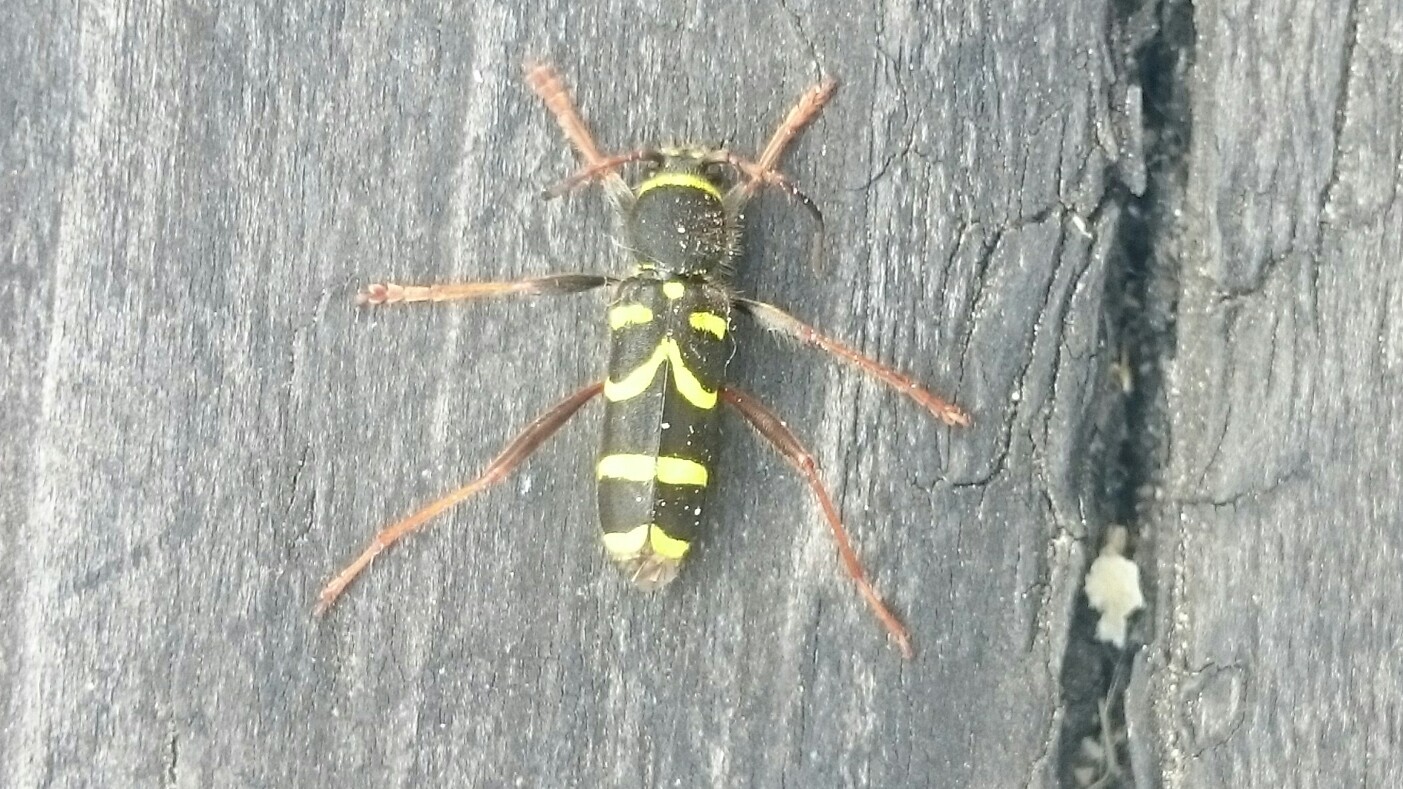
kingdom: Animalia
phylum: Arthropoda
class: Insecta
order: Coleoptera
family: Cerambycidae
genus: Clytus
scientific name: Clytus arietis
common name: Wasp beetle
